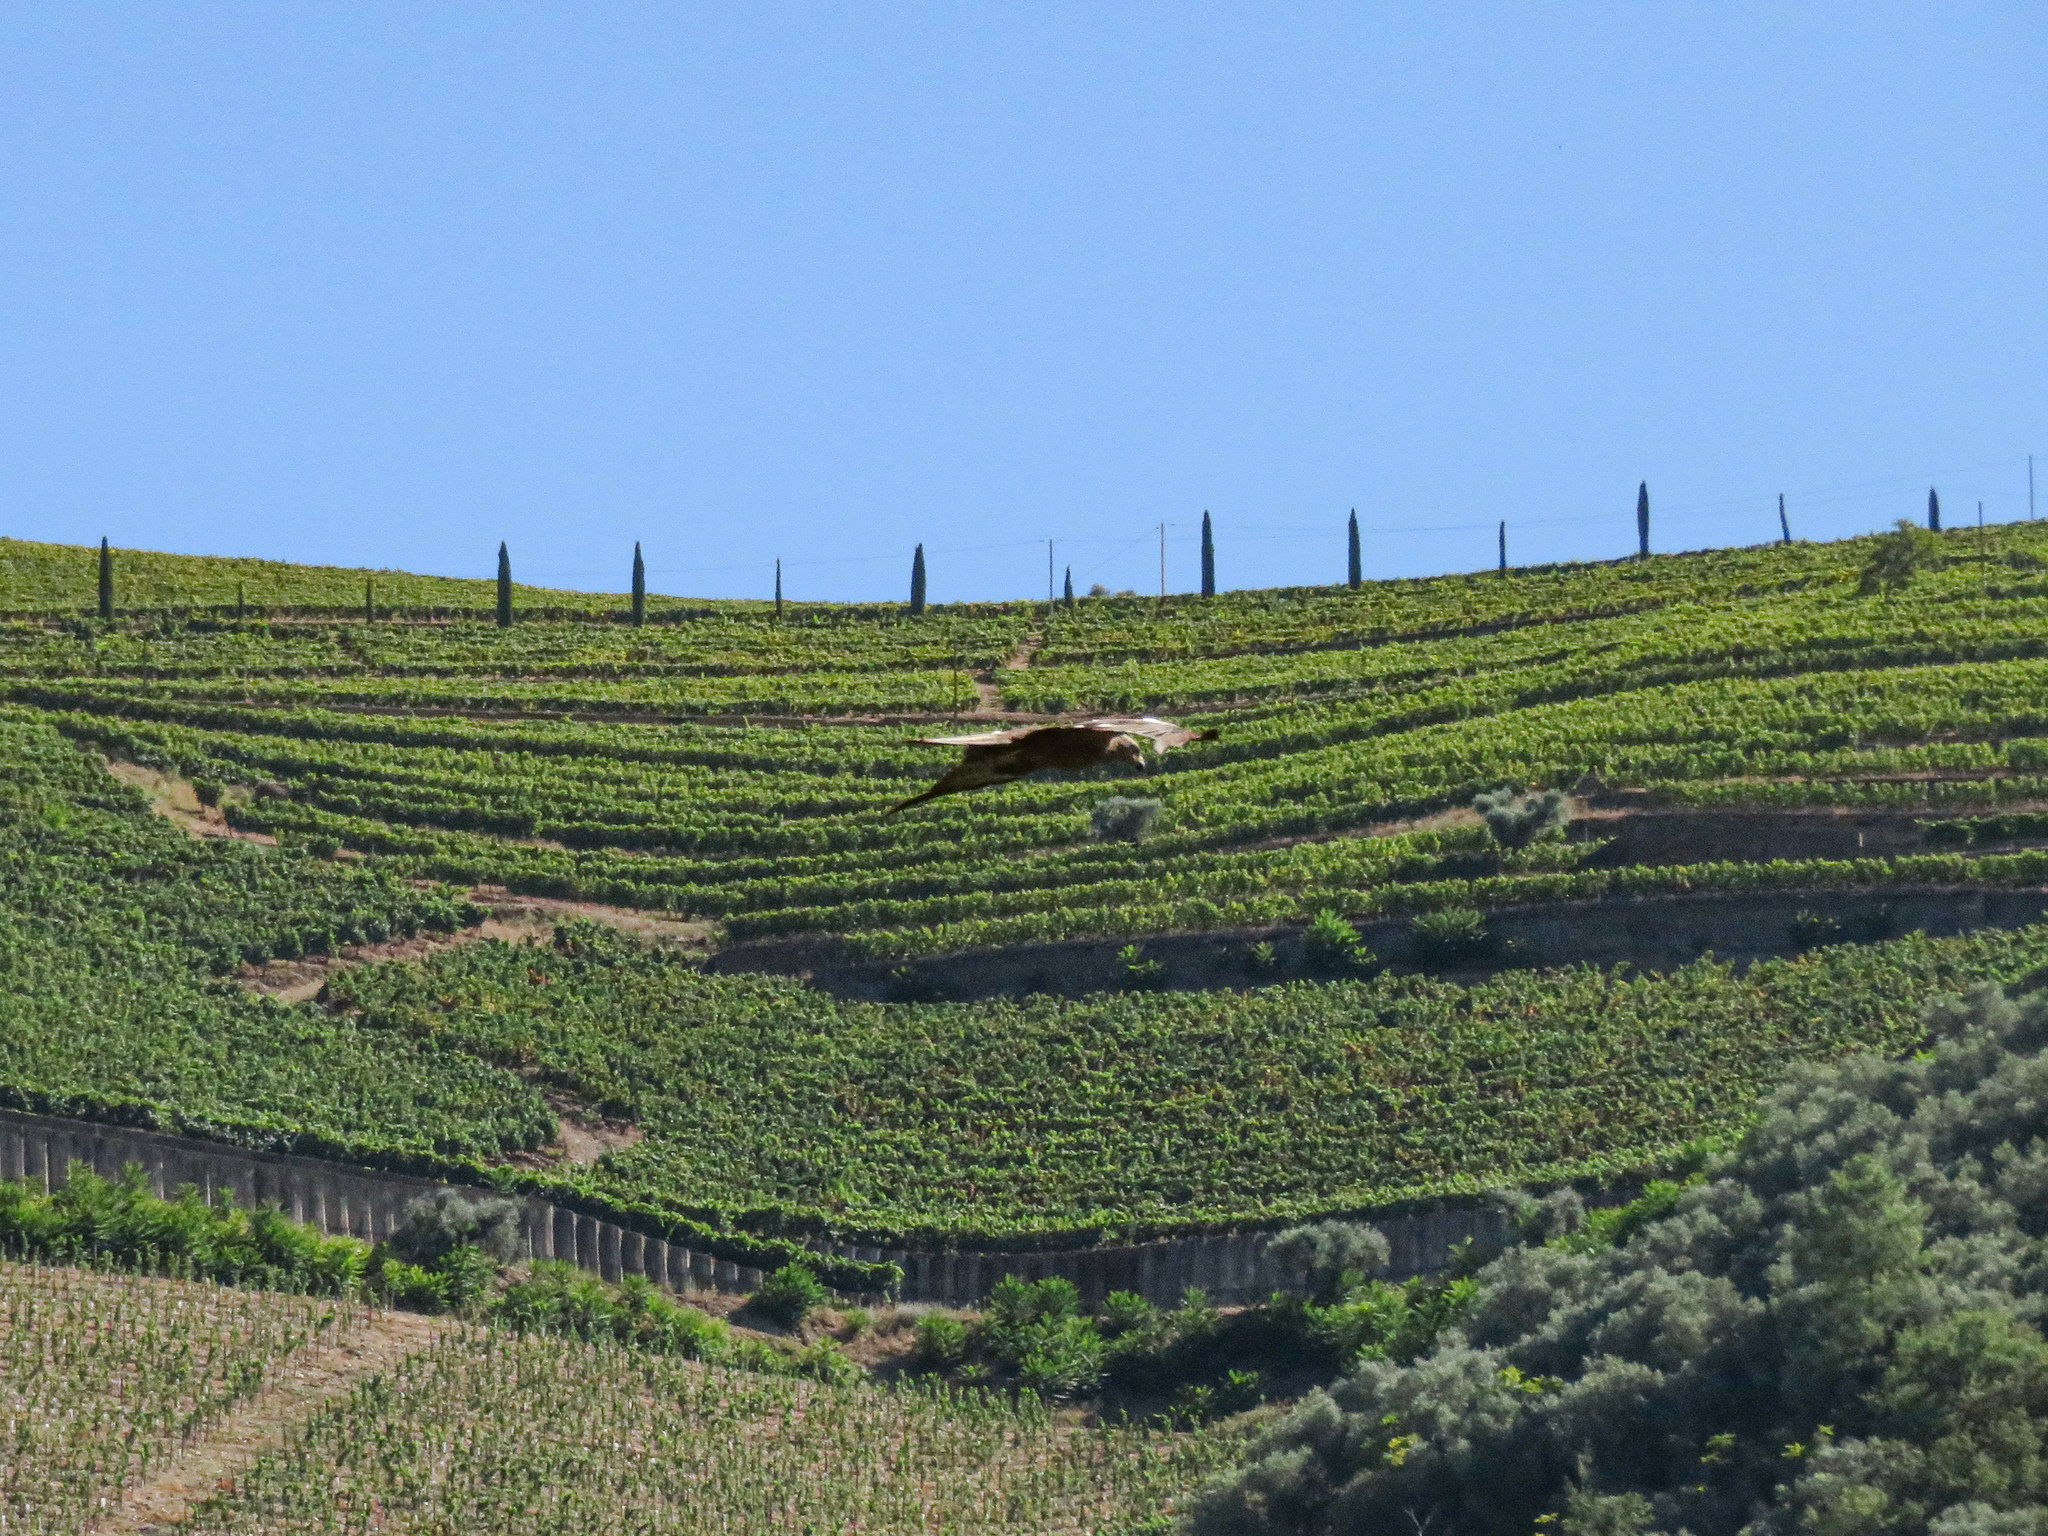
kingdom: Animalia
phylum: Chordata
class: Aves
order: Accipitriformes
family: Accipitridae
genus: Milvus
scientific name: Milvus migrans
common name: Black kite
